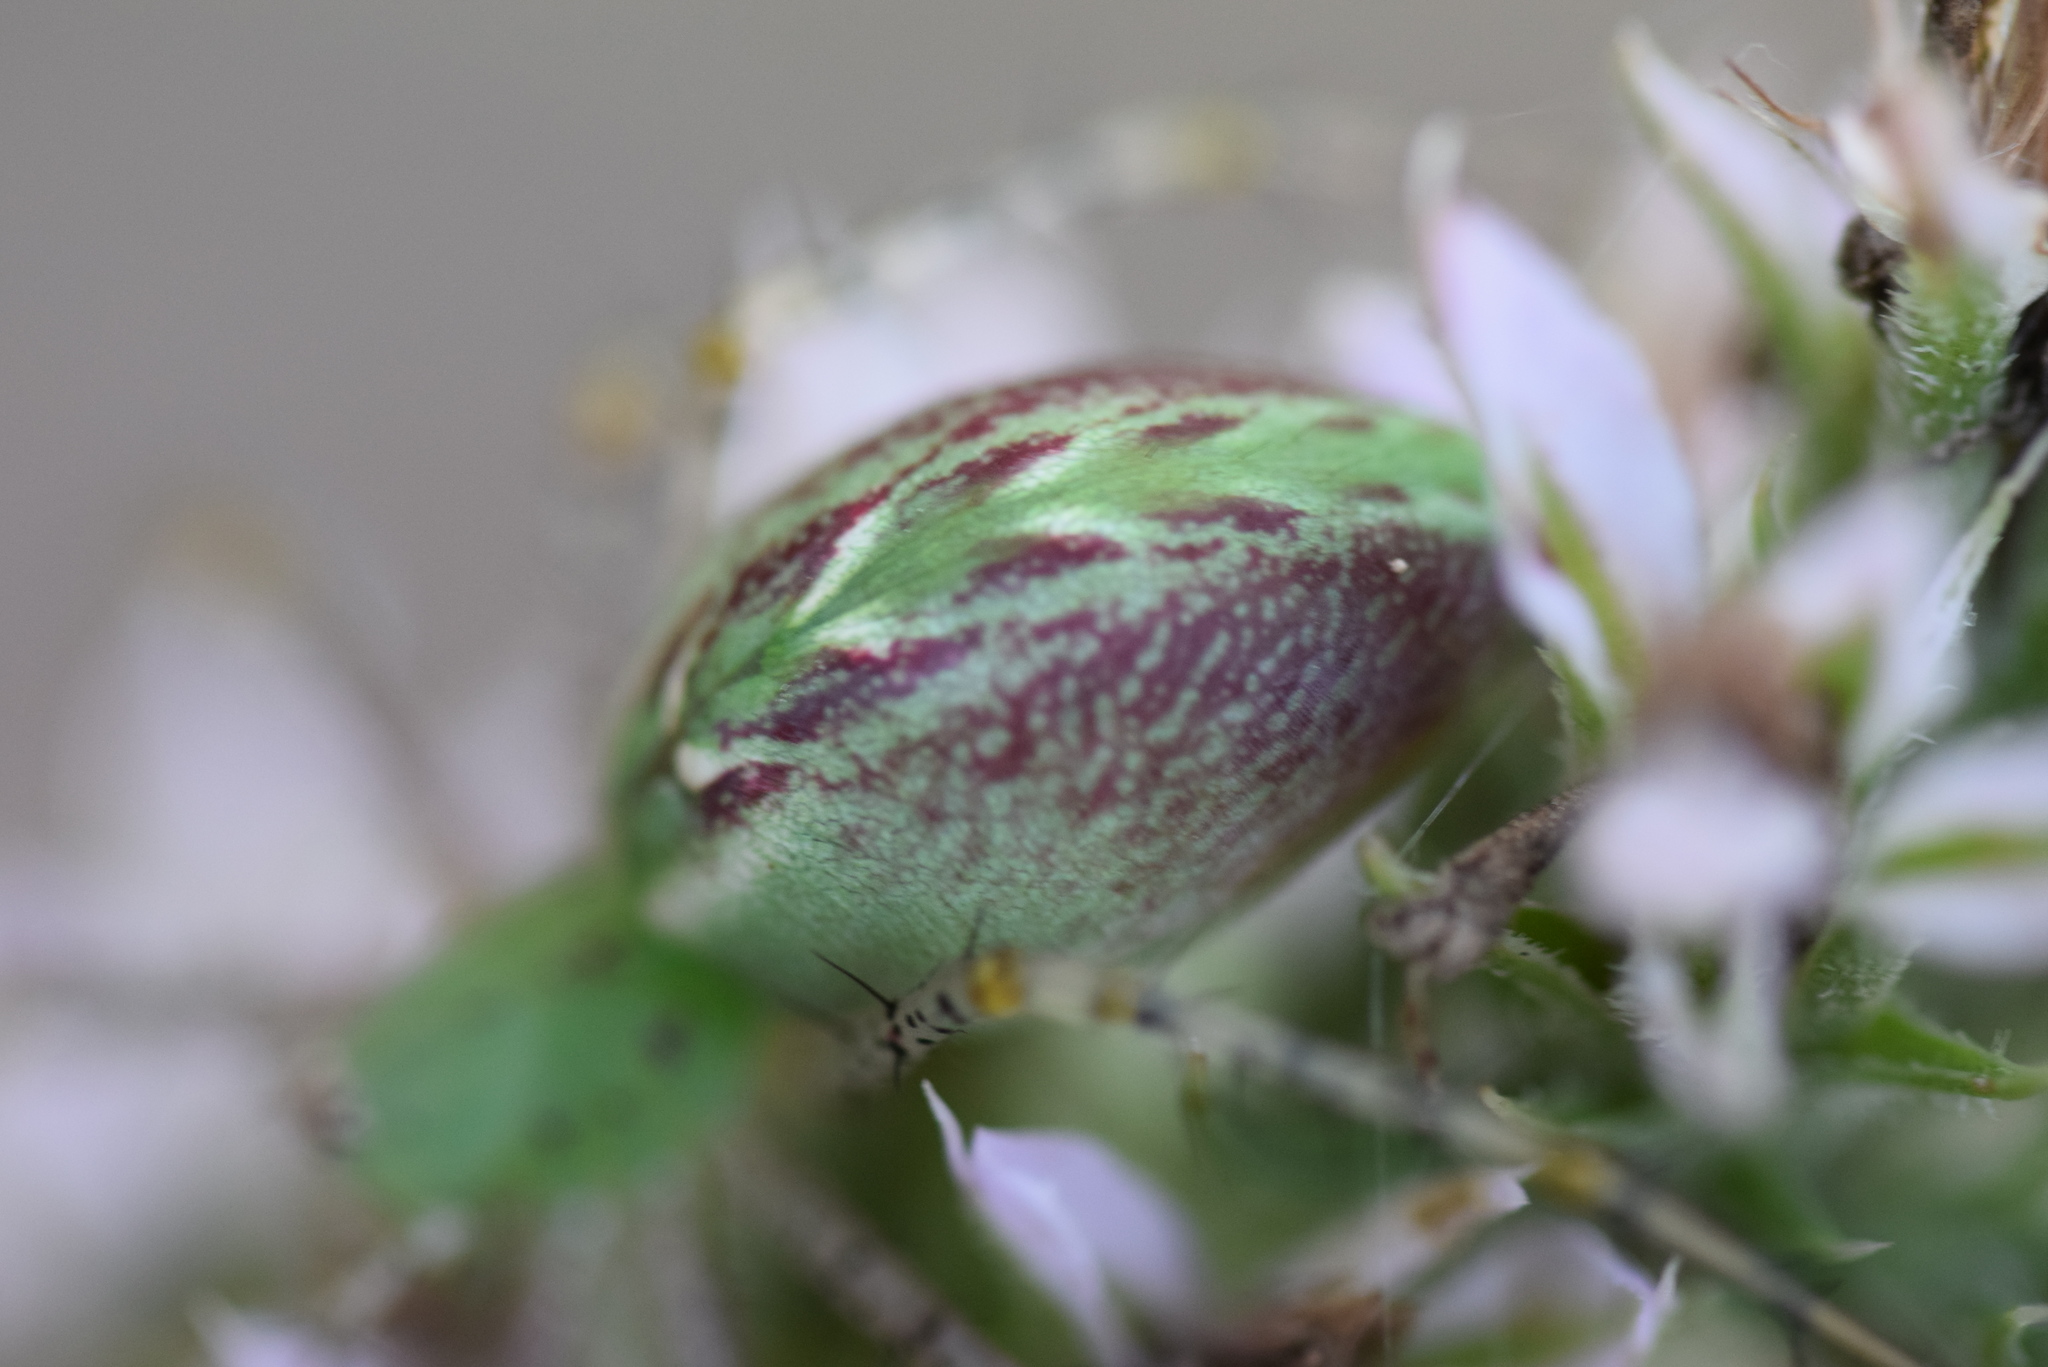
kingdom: Animalia
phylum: Arthropoda
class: Arachnida
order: Araneae
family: Oxyopidae
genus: Peucetia
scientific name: Peucetia viridans
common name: Lynx spiders
